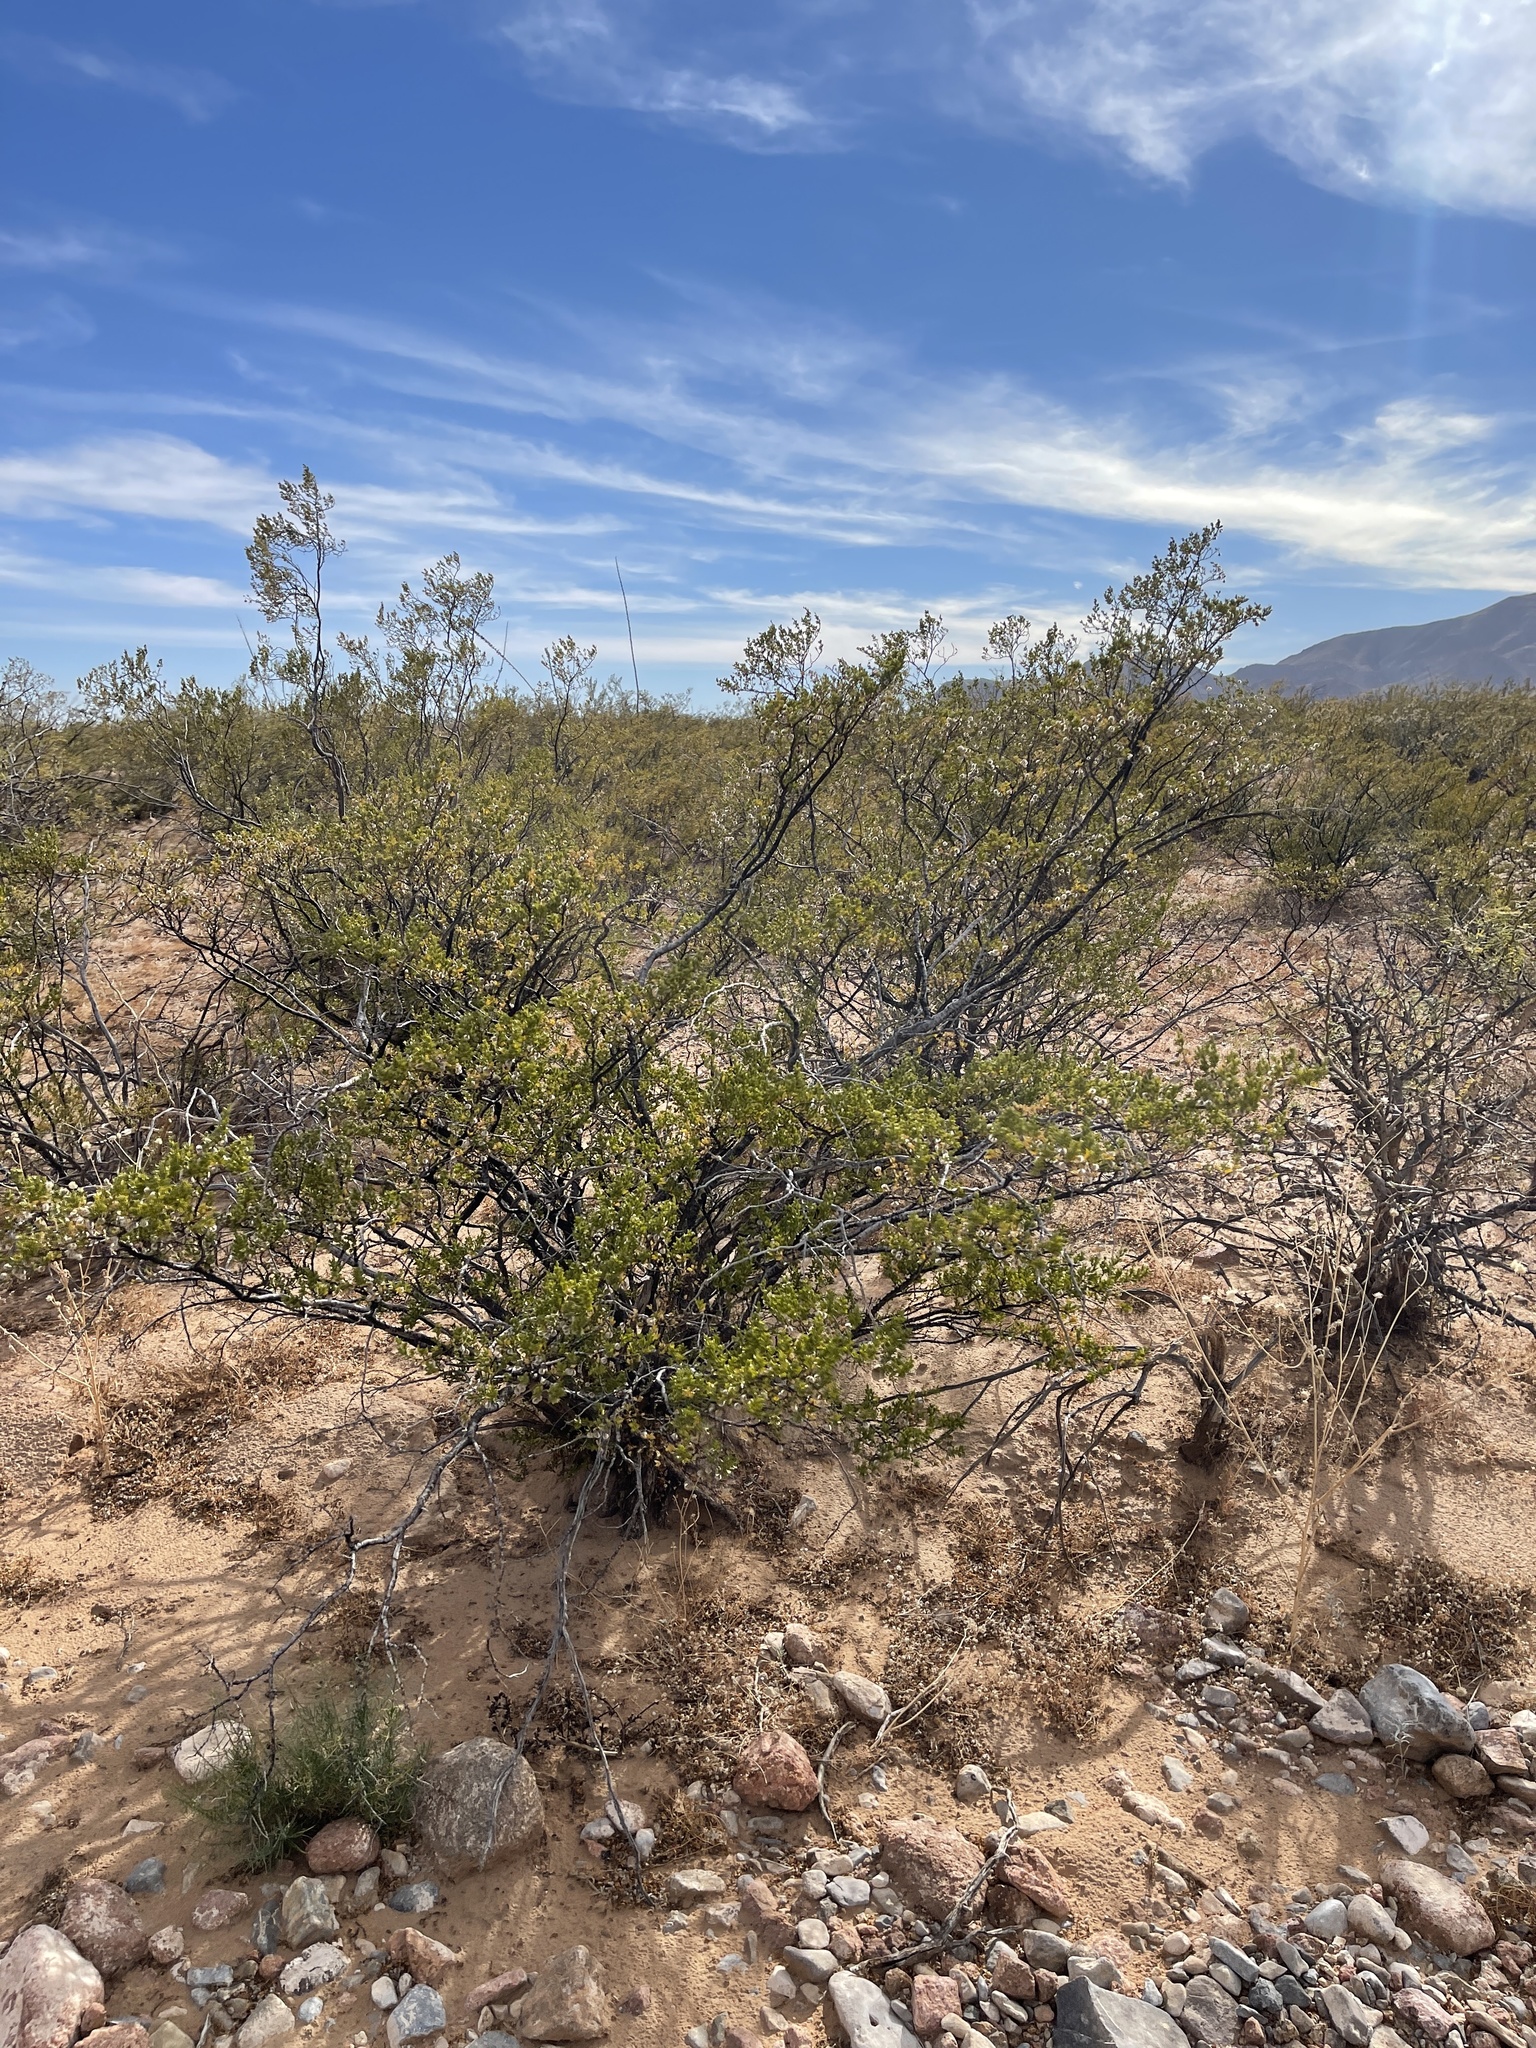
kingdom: Plantae
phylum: Tracheophyta
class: Magnoliopsida
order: Zygophyllales
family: Zygophyllaceae
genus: Larrea
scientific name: Larrea tridentata
